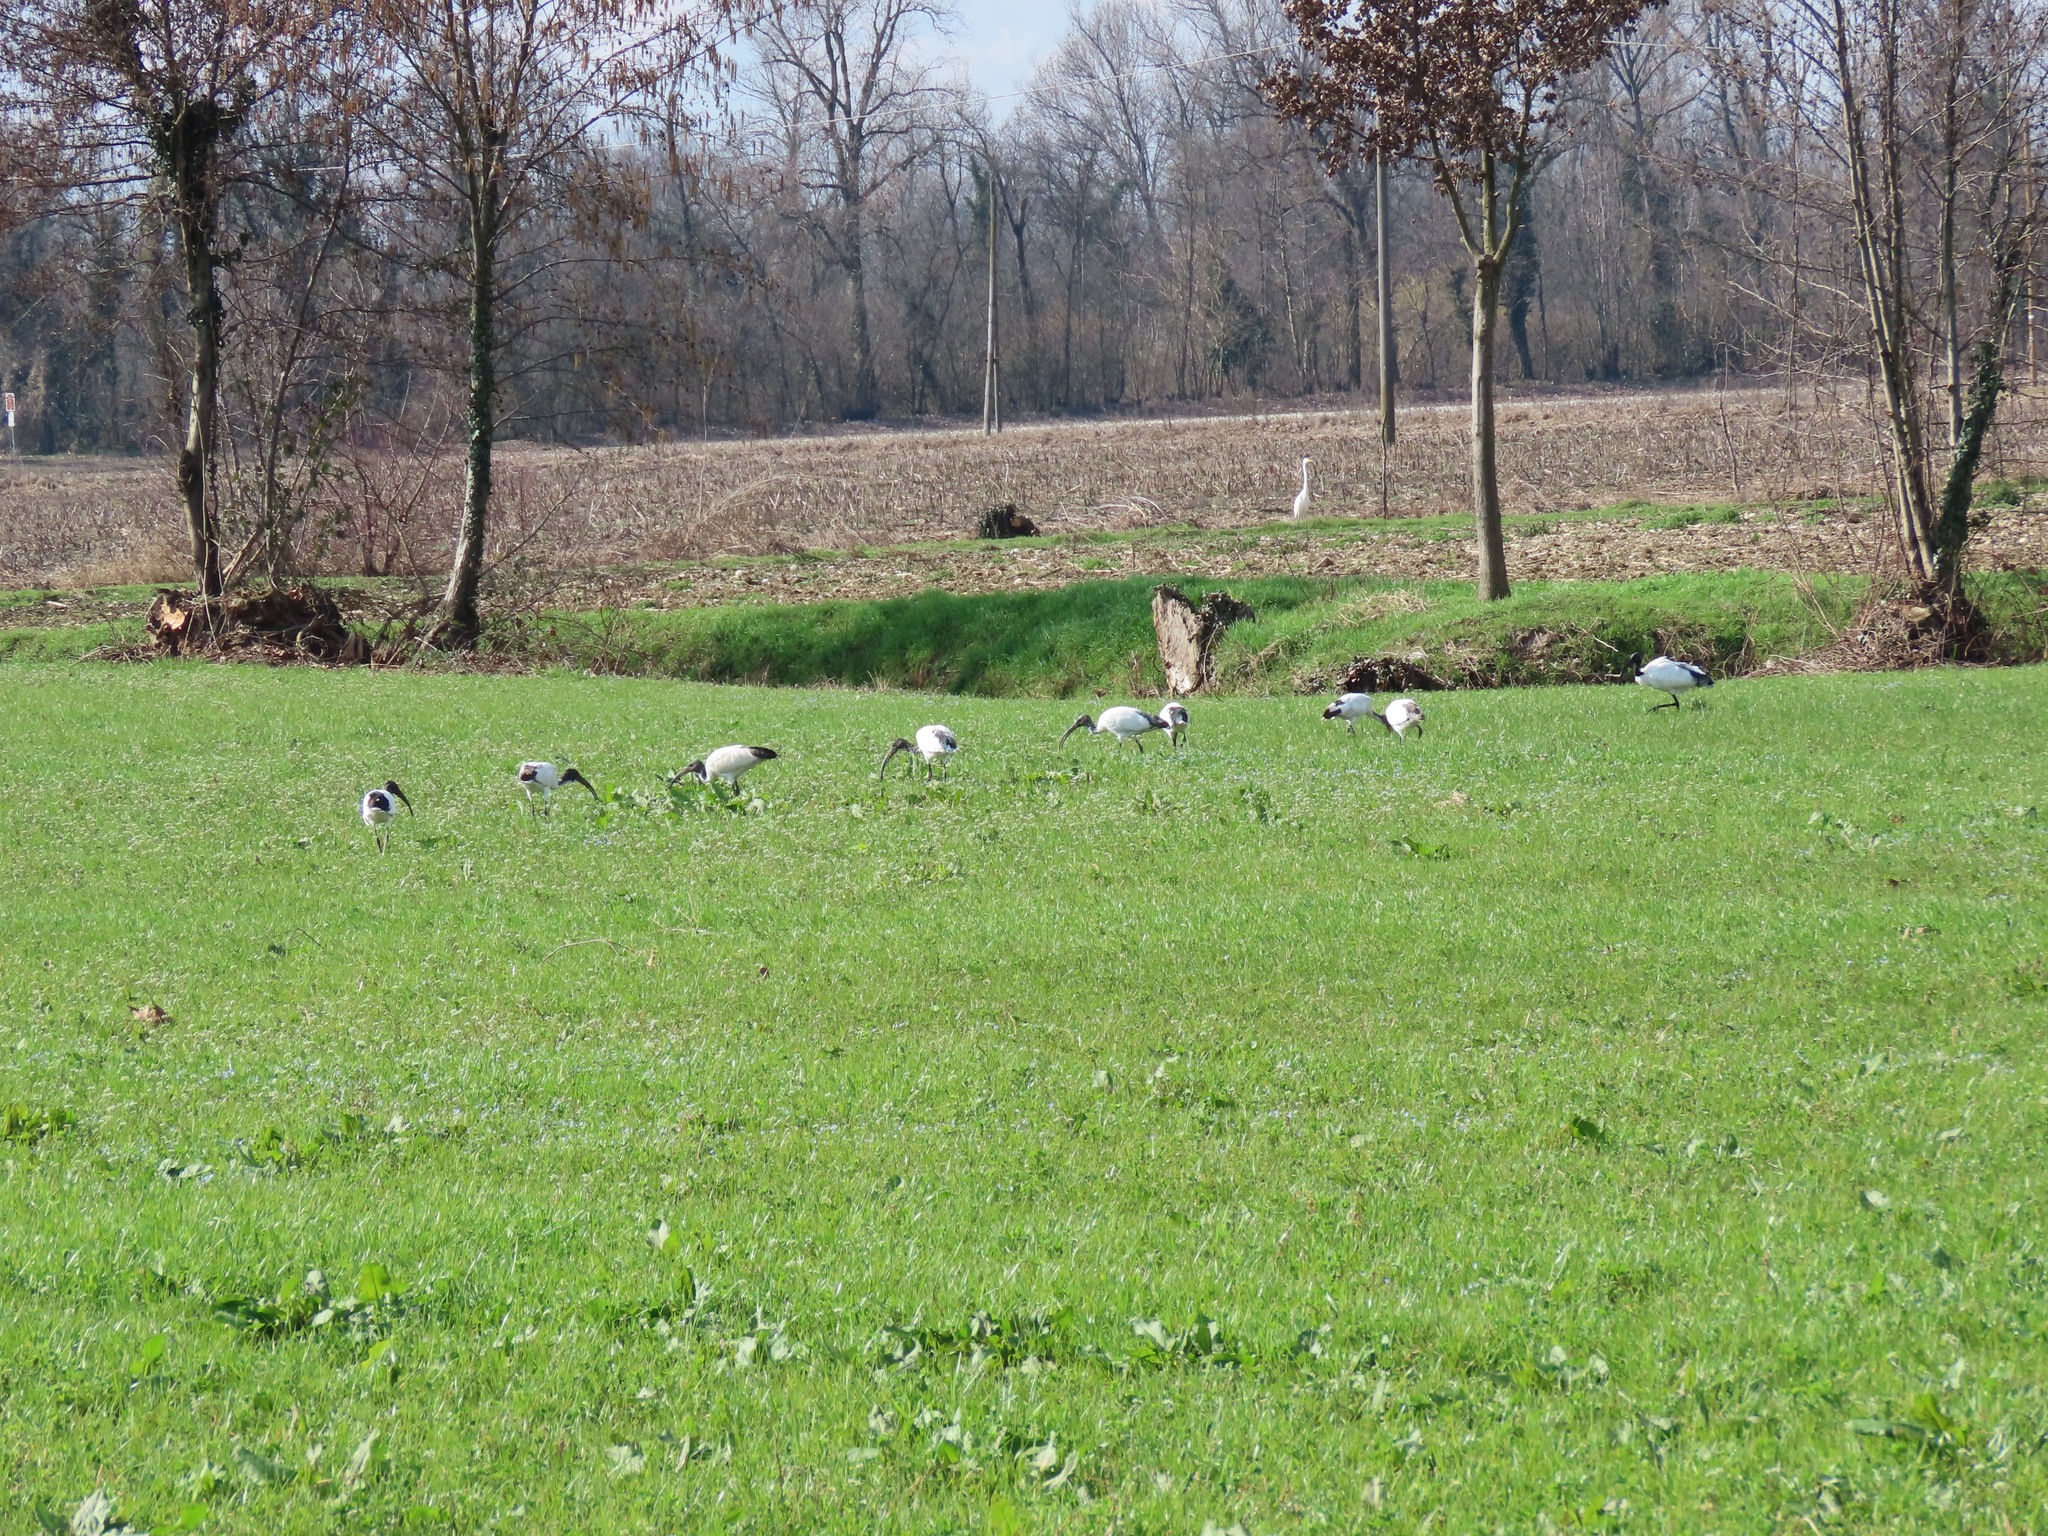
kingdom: Animalia
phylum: Chordata
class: Aves
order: Pelecaniformes
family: Threskiornithidae
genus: Threskiornis
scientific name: Threskiornis aethiopicus
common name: Sacred ibis
